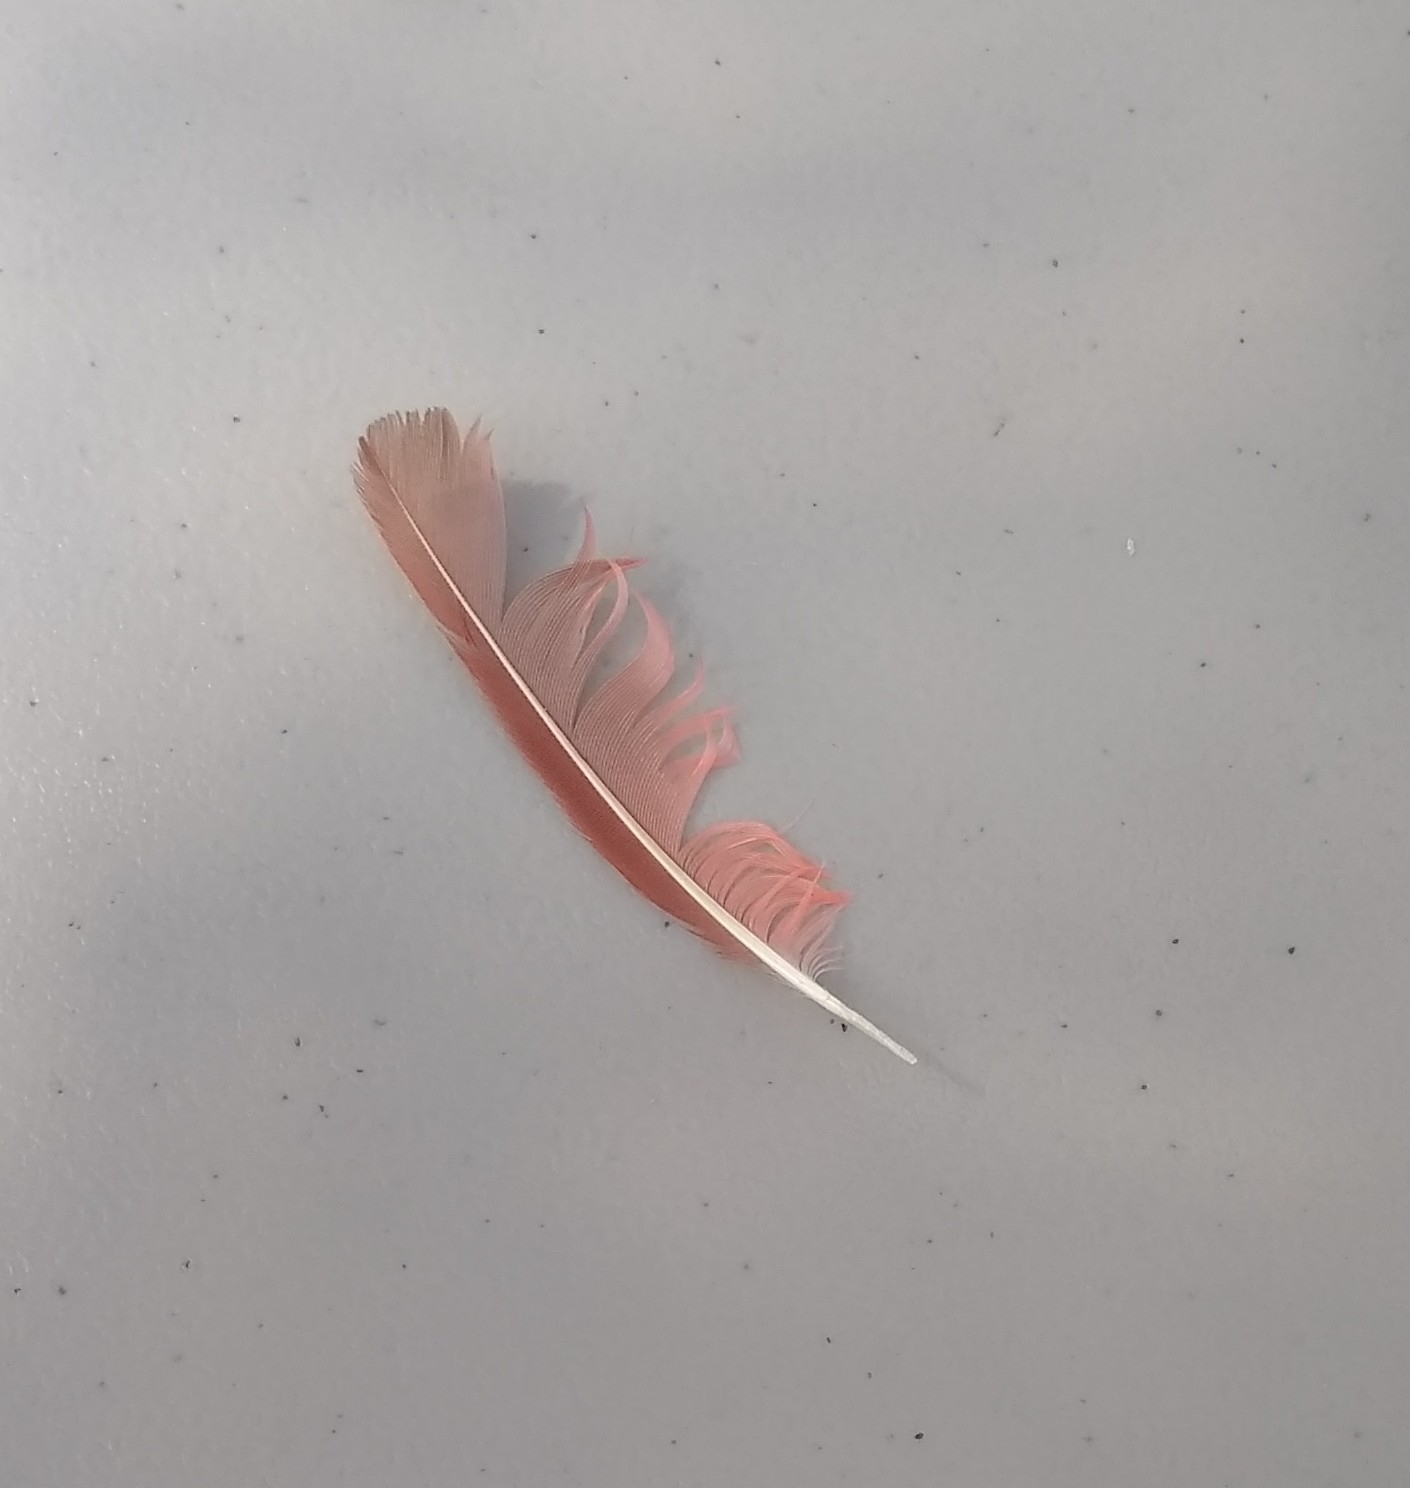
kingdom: Animalia
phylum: Chordata
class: Aves
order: Passeriformes
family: Cardinalidae
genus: Cardinalis
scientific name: Cardinalis cardinalis
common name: Northern cardinal
